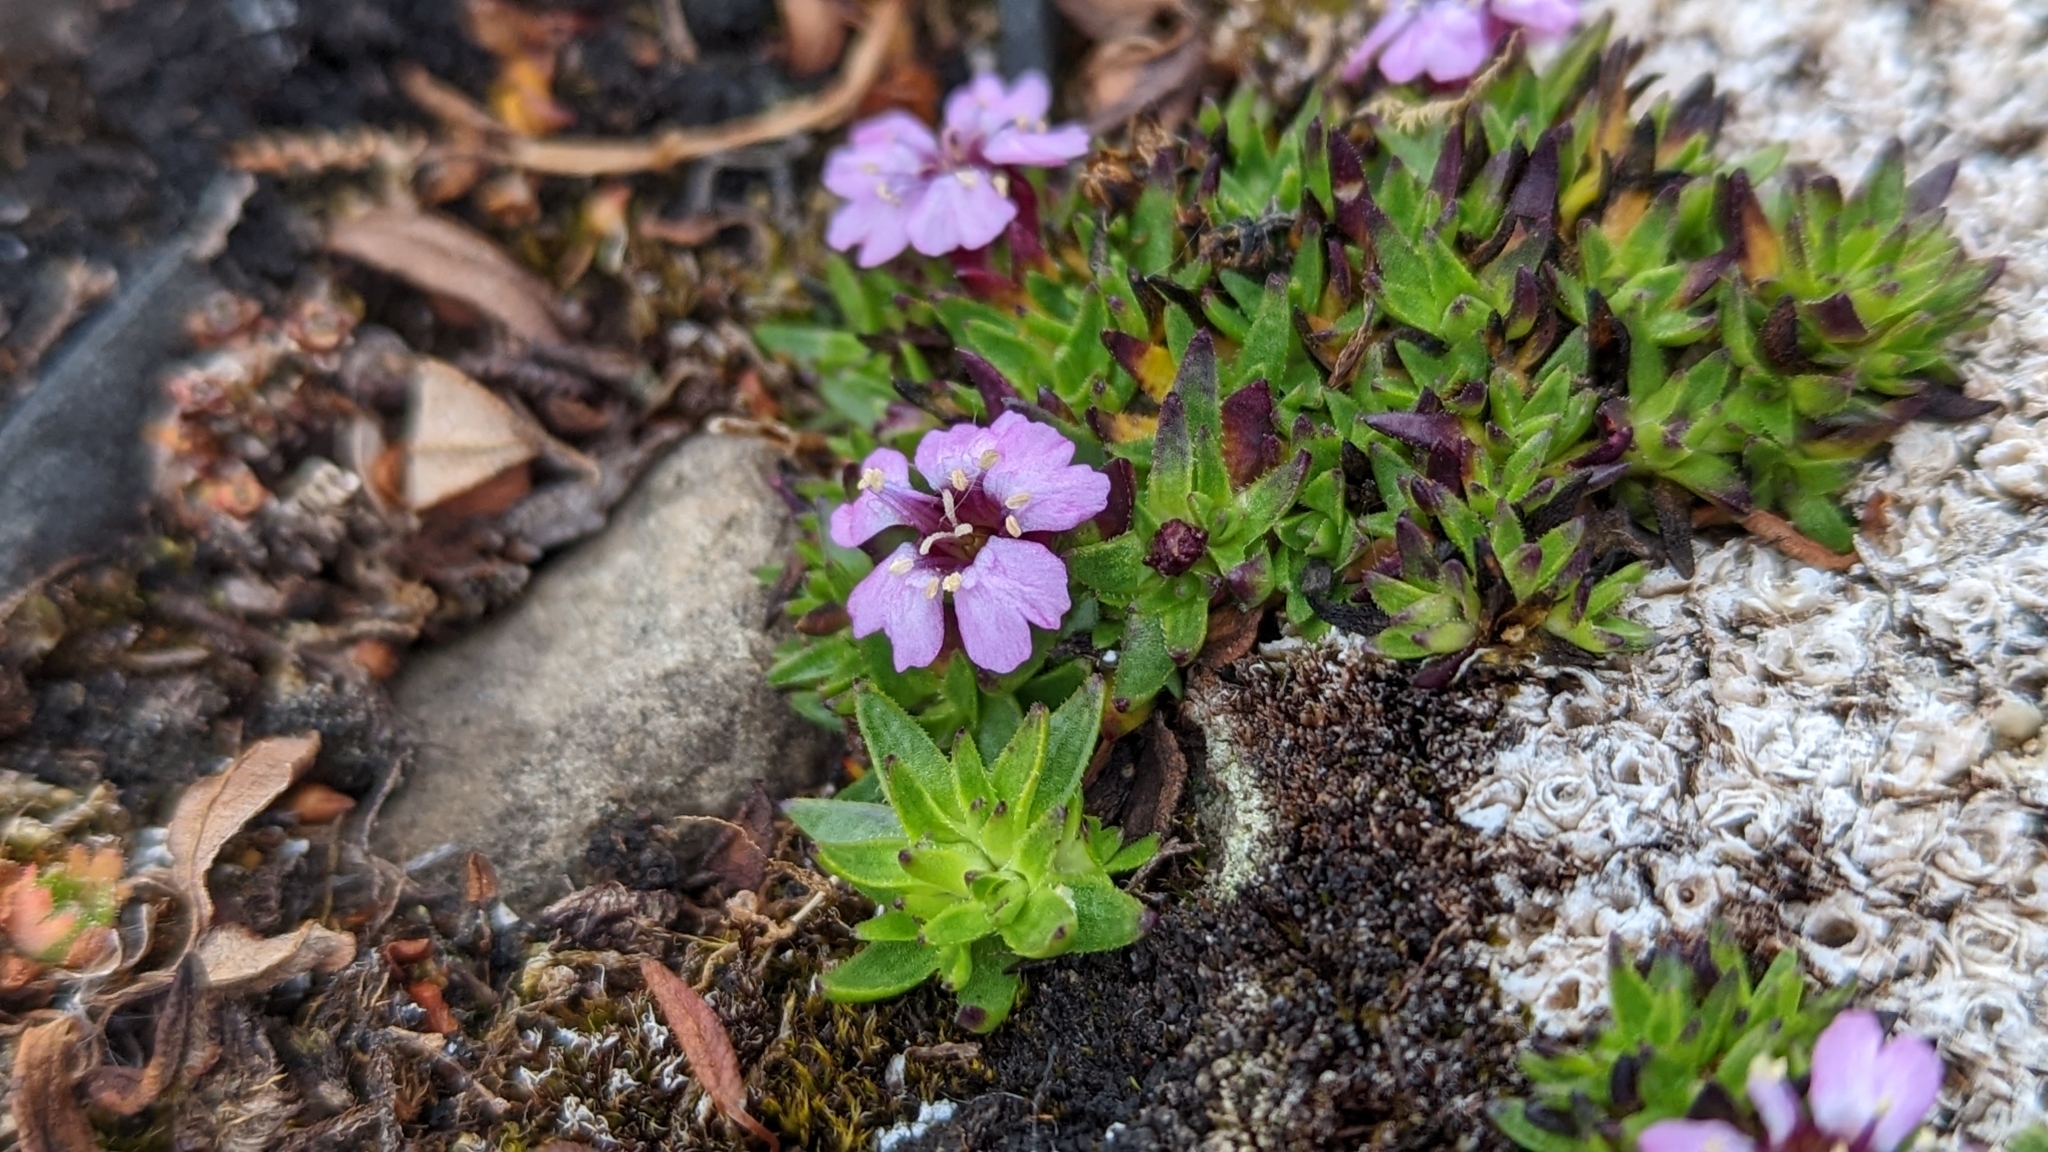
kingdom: Plantae
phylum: Tracheophyta
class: Magnoliopsida
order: Caryophyllales
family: Caryophyllaceae
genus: Silene
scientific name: Silene acaulis
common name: Moss campion
